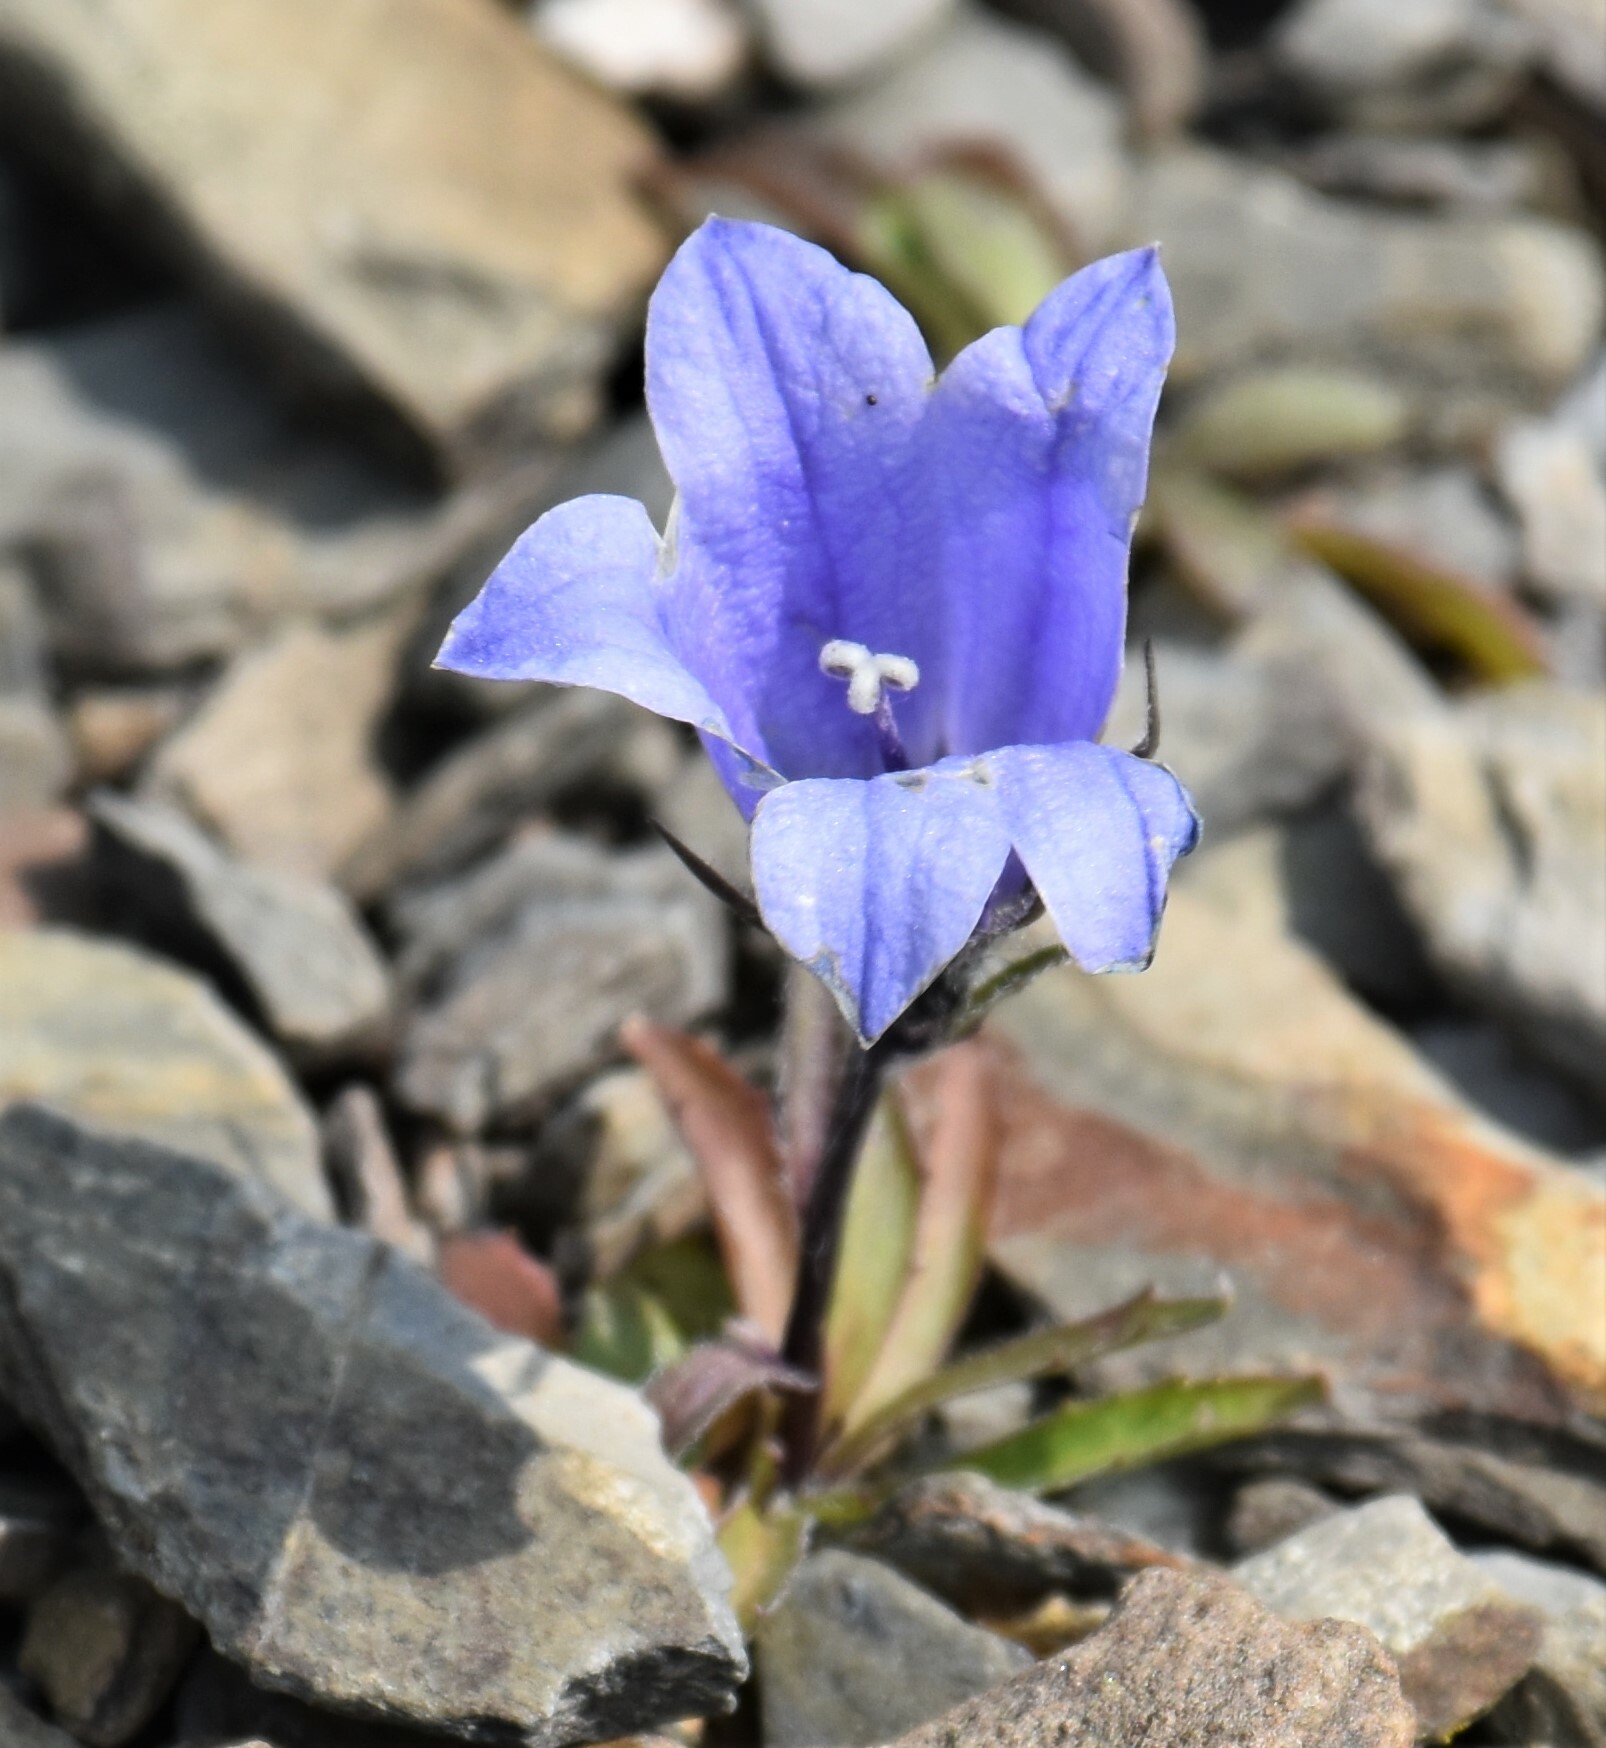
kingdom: Plantae
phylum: Tracheophyta
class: Magnoliopsida
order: Asterales
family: Campanulaceae
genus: Campanula
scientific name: Campanula lasiocarpa
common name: Mountain harebell
